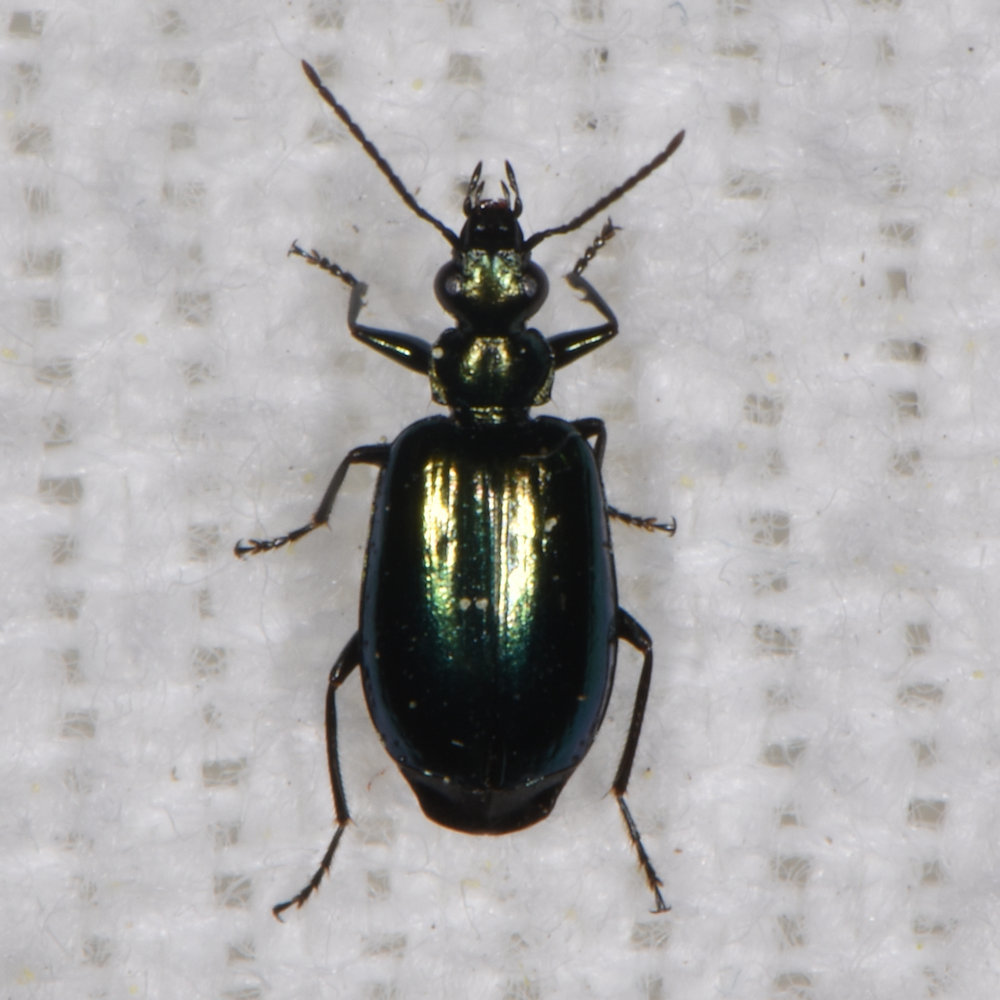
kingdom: Animalia
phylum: Arthropoda
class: Insecta
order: Coleoptera
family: Carabidae
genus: Lebia
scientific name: Lebia viridis
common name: Flower lebia beetle
